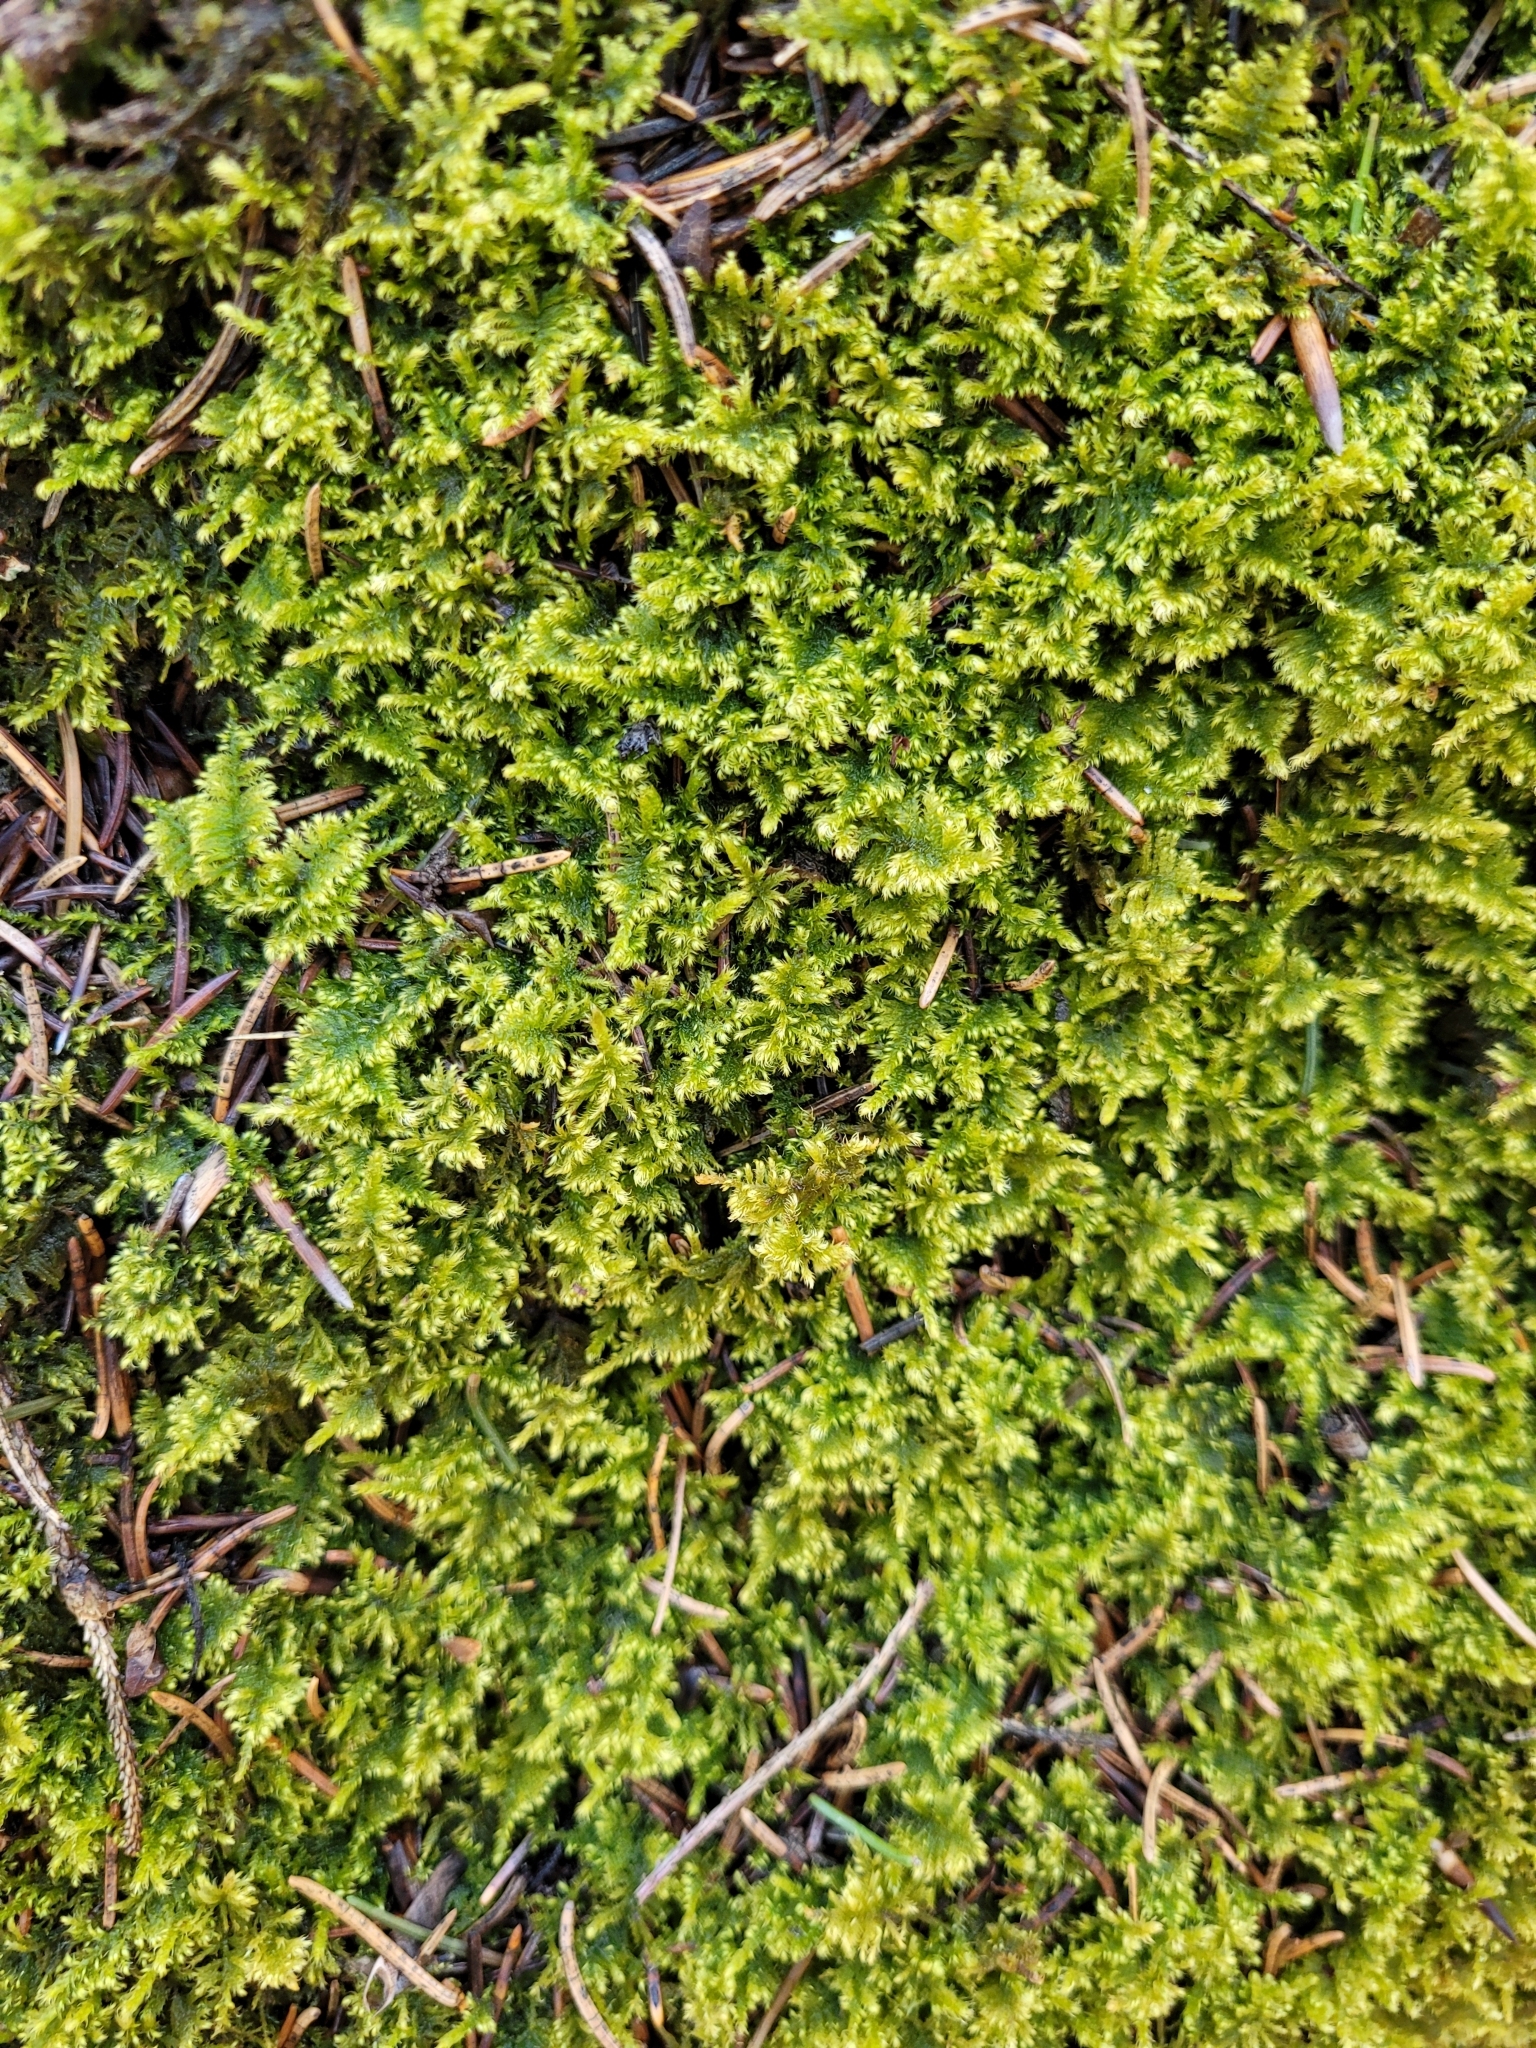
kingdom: Plantae
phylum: Bryophyta
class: Bryopsida
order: Hypnales
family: Myuriaceae
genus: Ctenidium
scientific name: Ctenidium molluscum
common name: Chalk comb-moss
